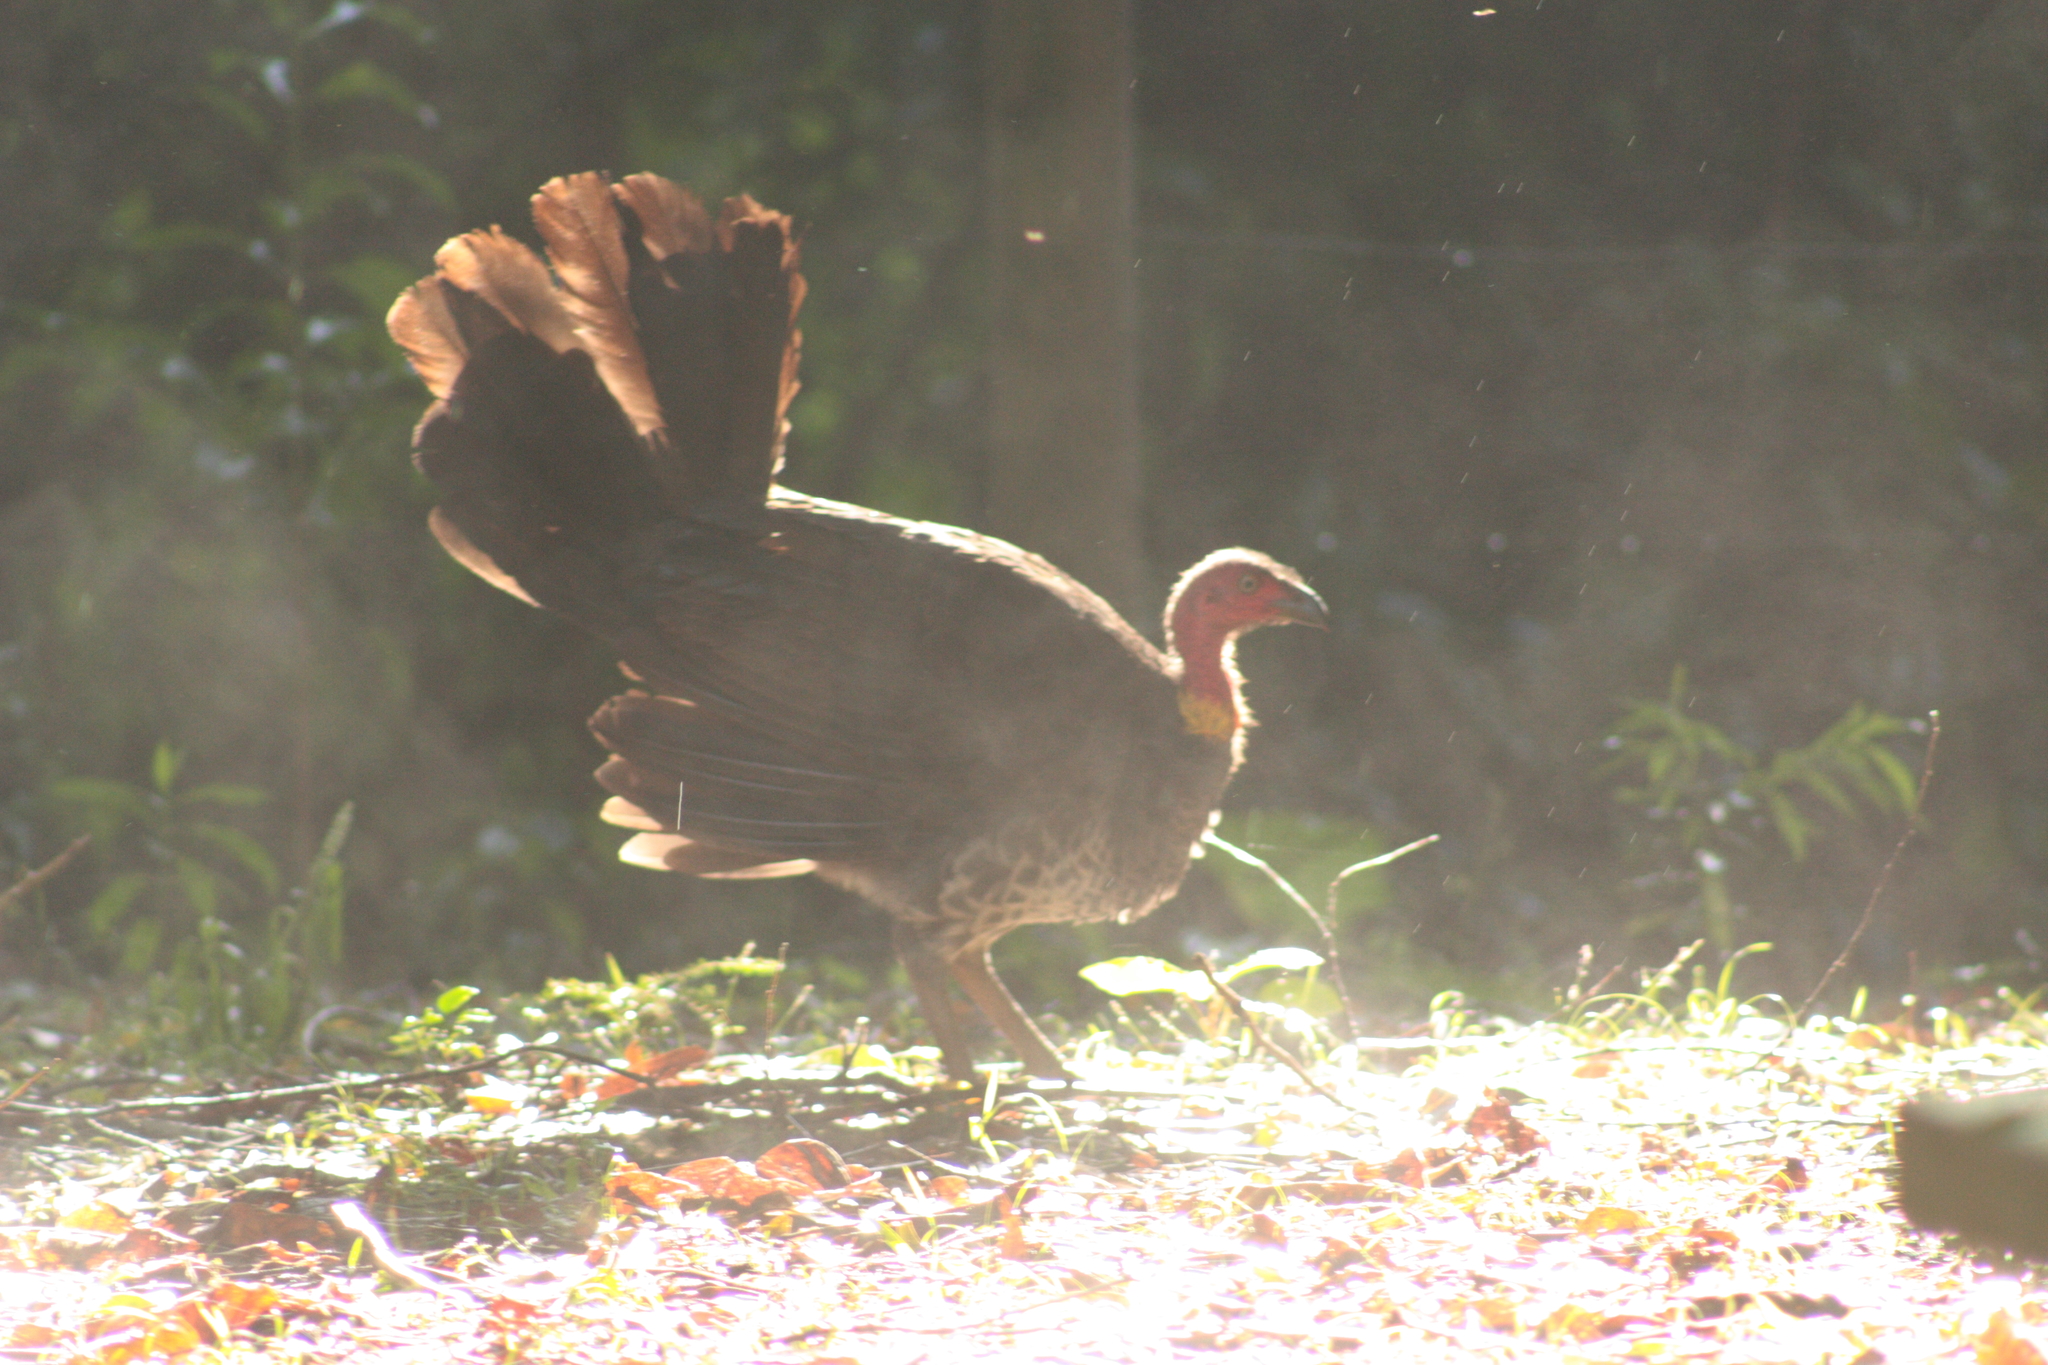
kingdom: Animalia
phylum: Chordata
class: Aves
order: Galliformes
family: Megapodiidae
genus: Alectura
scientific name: Alectura lathami
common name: Australian brushturkey
